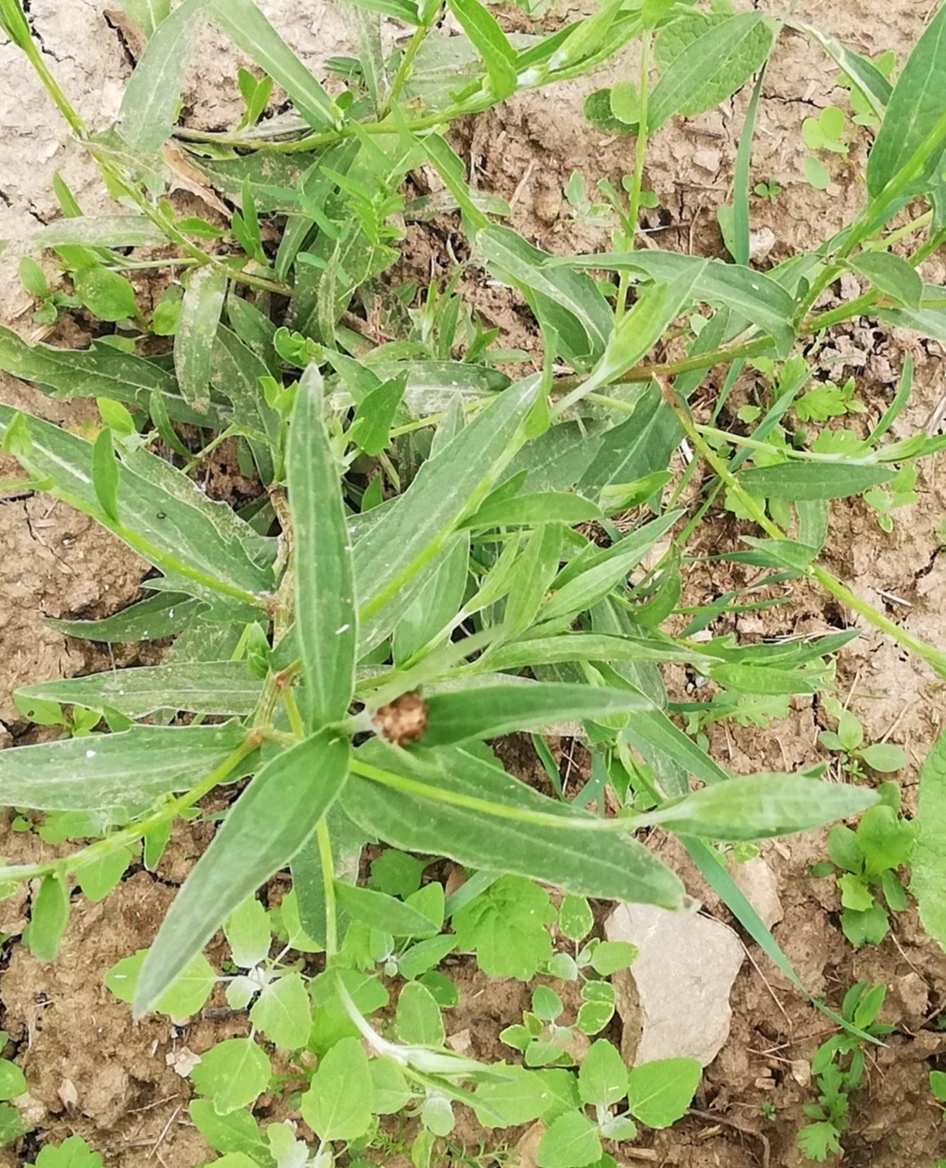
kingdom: Plantae
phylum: Tracheophyta
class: Magnoliopsida
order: Asterales
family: Asteraceae
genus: Centaurea
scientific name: Centaurea jacea
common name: Brown knapweed
